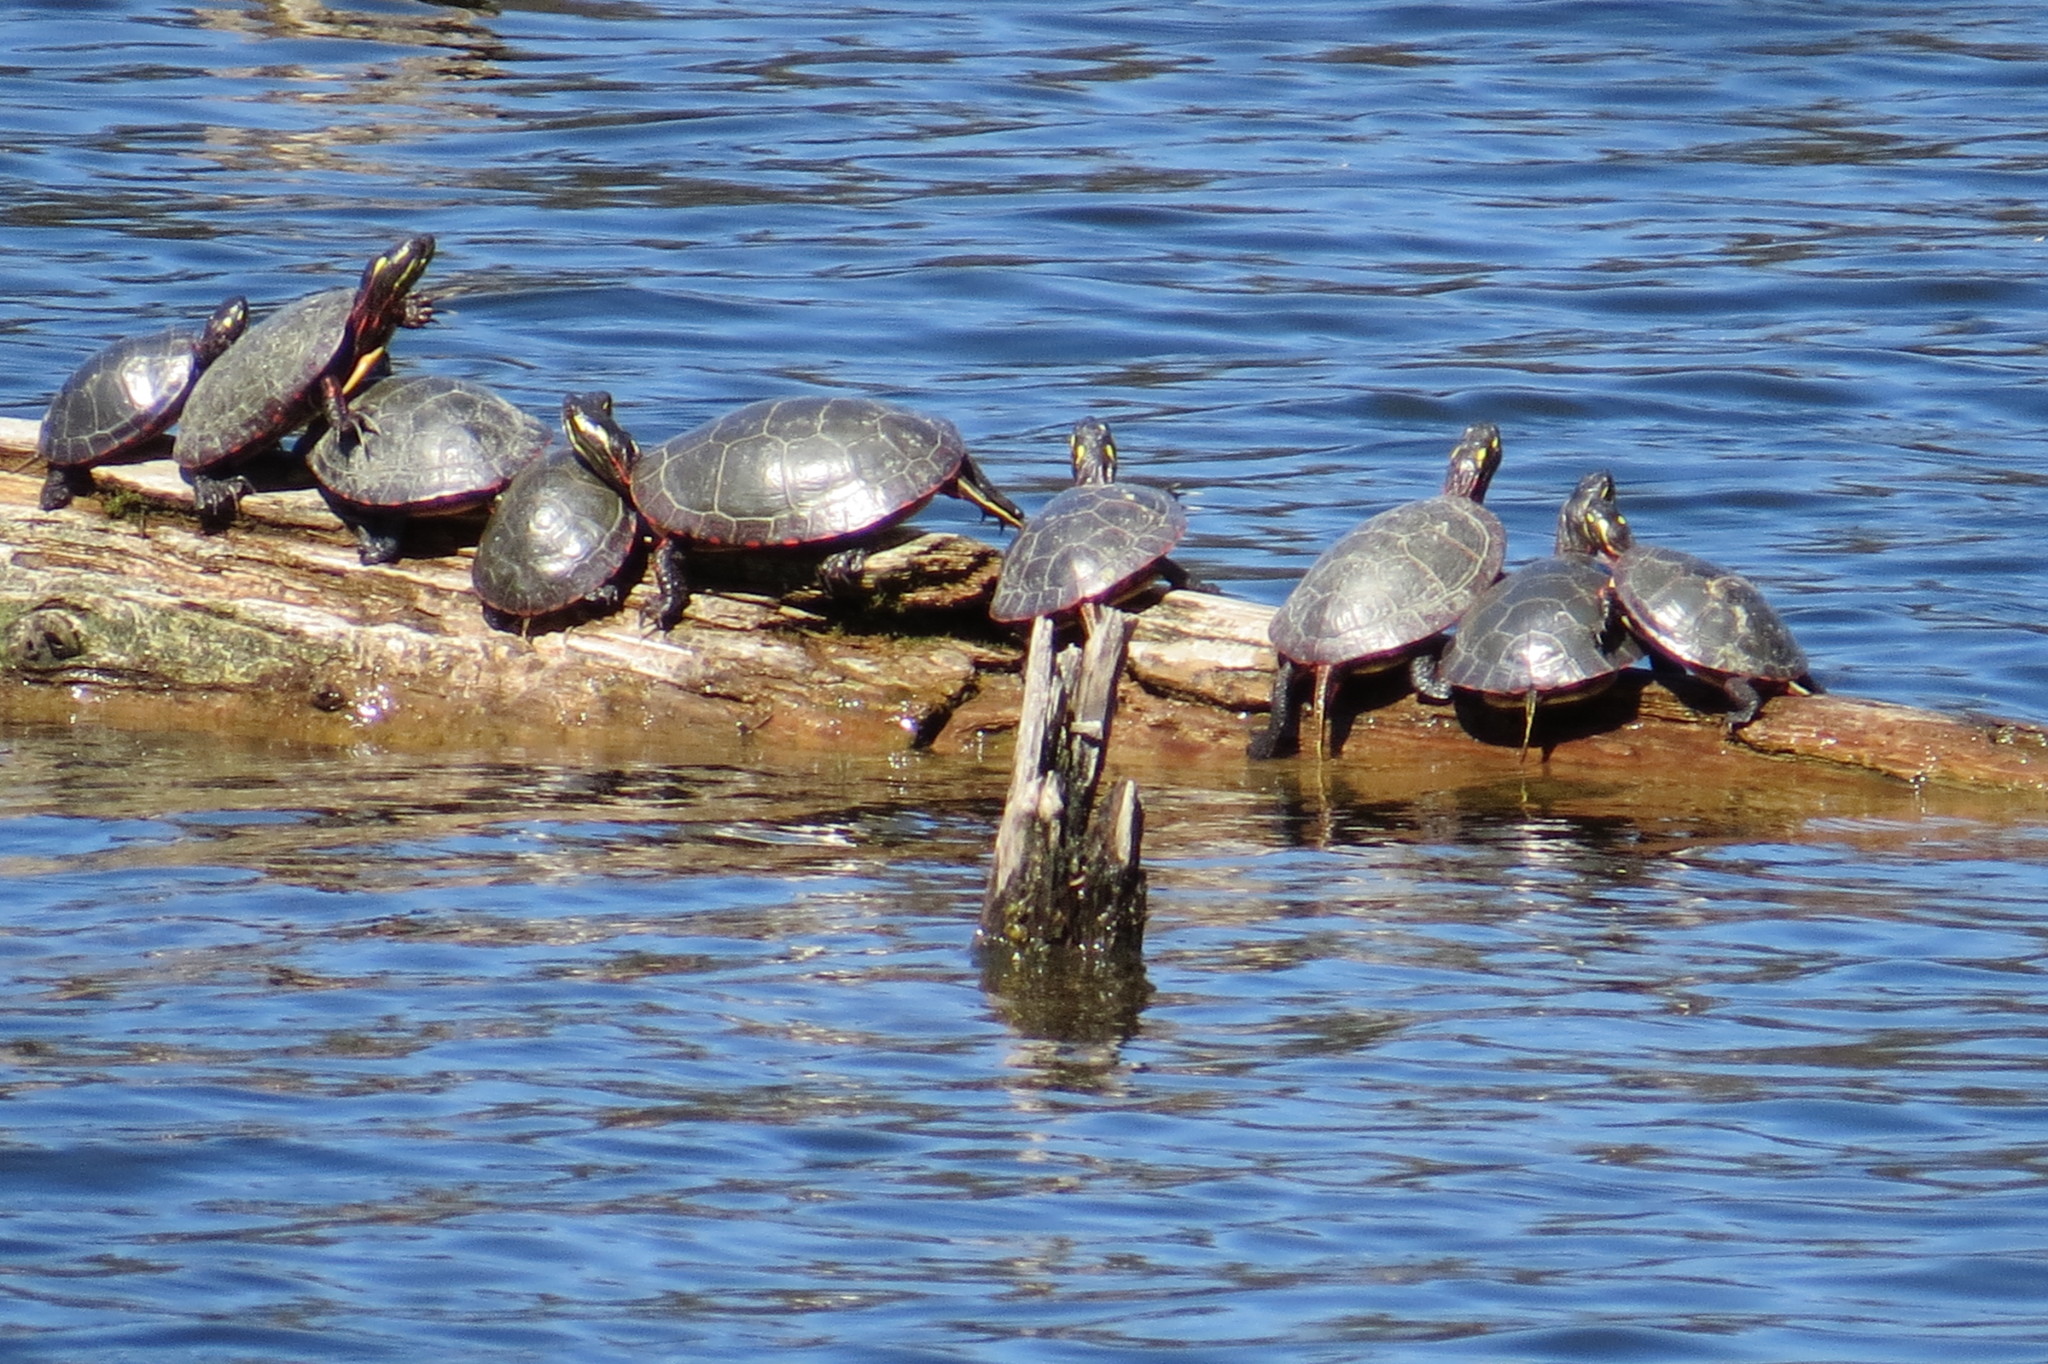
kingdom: Animalia
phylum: Chordata
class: Testudines
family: Emydidae
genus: Chrysemys
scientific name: Chrysemys picta
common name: Painted turtle
